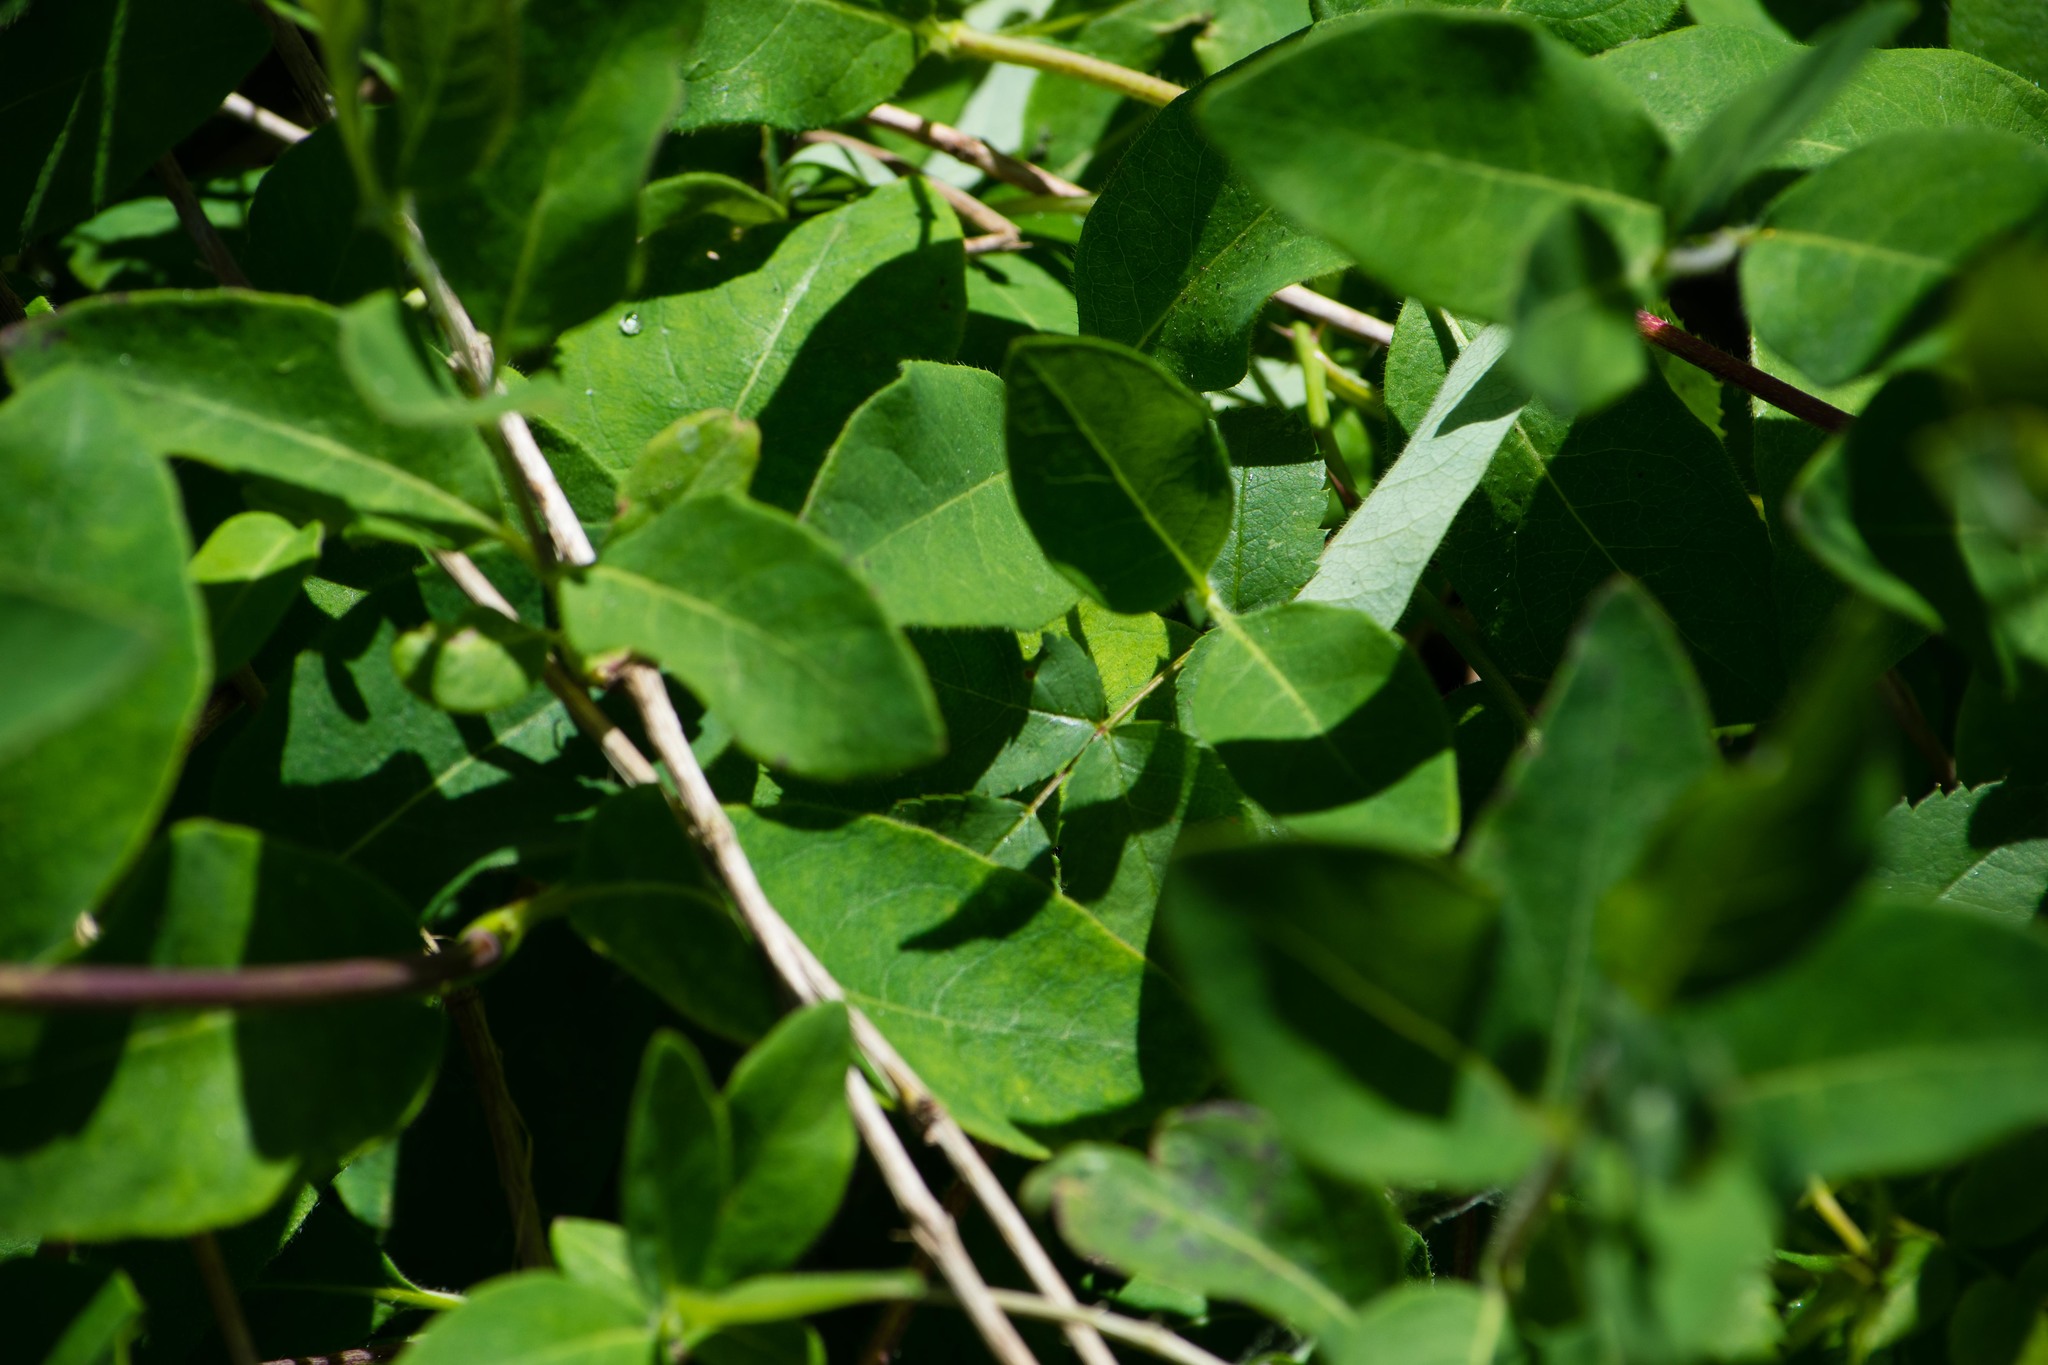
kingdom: Plantae
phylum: Tracheophyta
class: Magnoliopsida
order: Dipsacales
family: Caprifoliaceae
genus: Lonicera
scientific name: Lonicera periclymenum
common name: European honeysuckle
